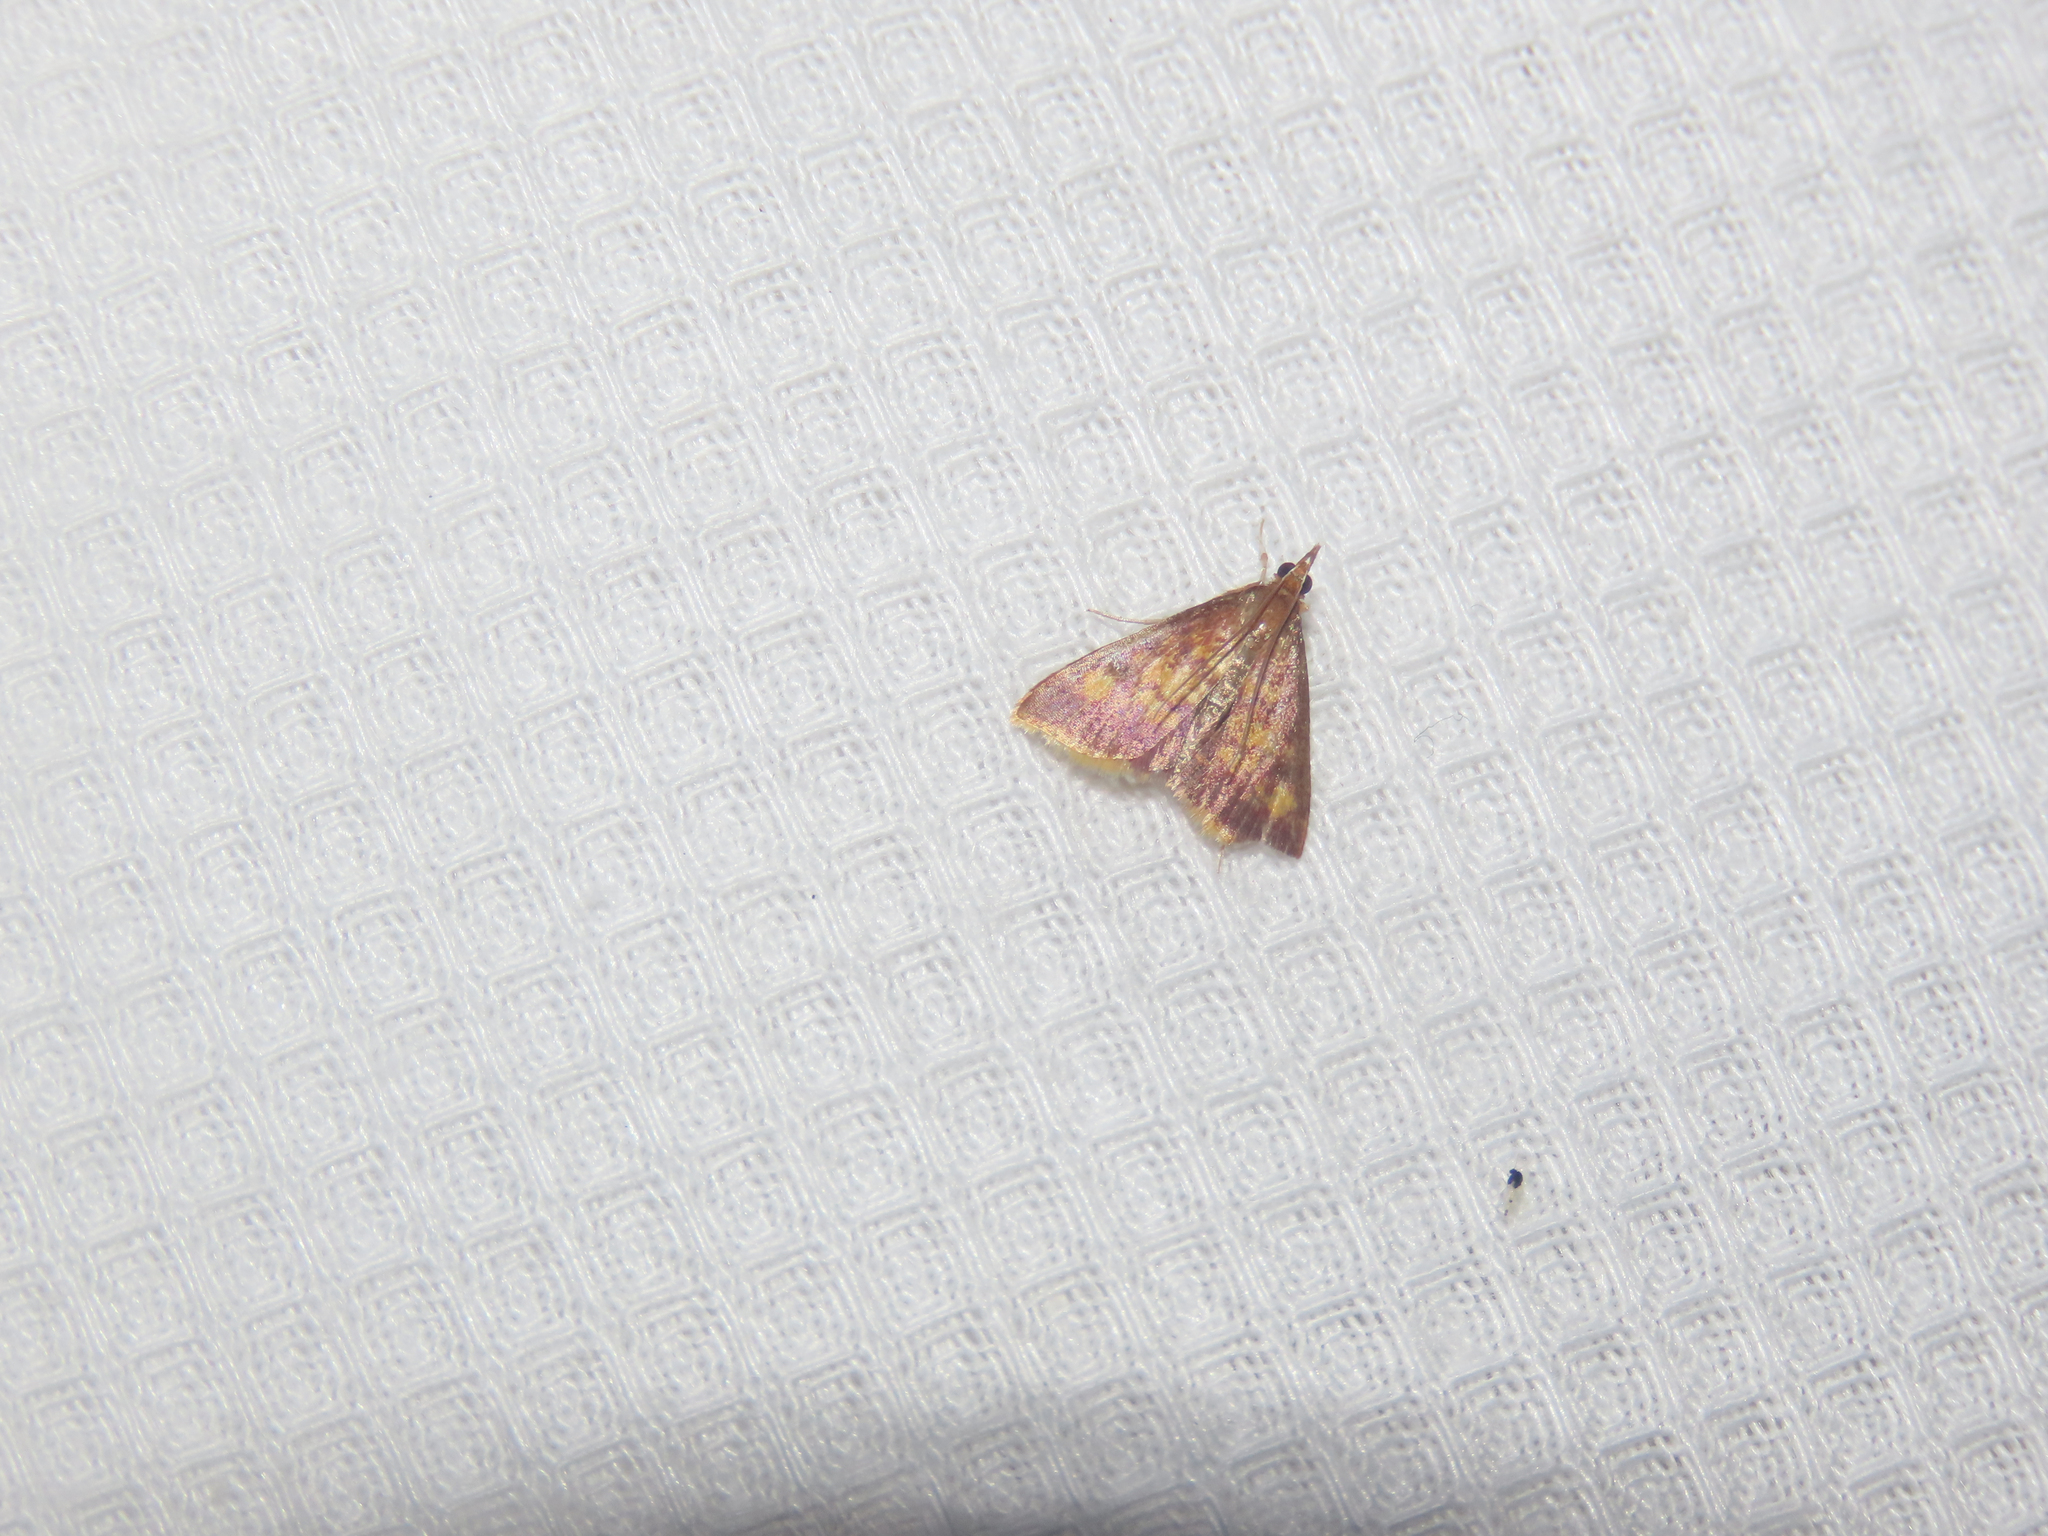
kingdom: Animalia
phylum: Arthropoda
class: Insecta
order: Lepidoptera
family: Crambidae
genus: Pyrausta
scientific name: Pyrausta acrionalis
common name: Mint-loving pyrausta moth
